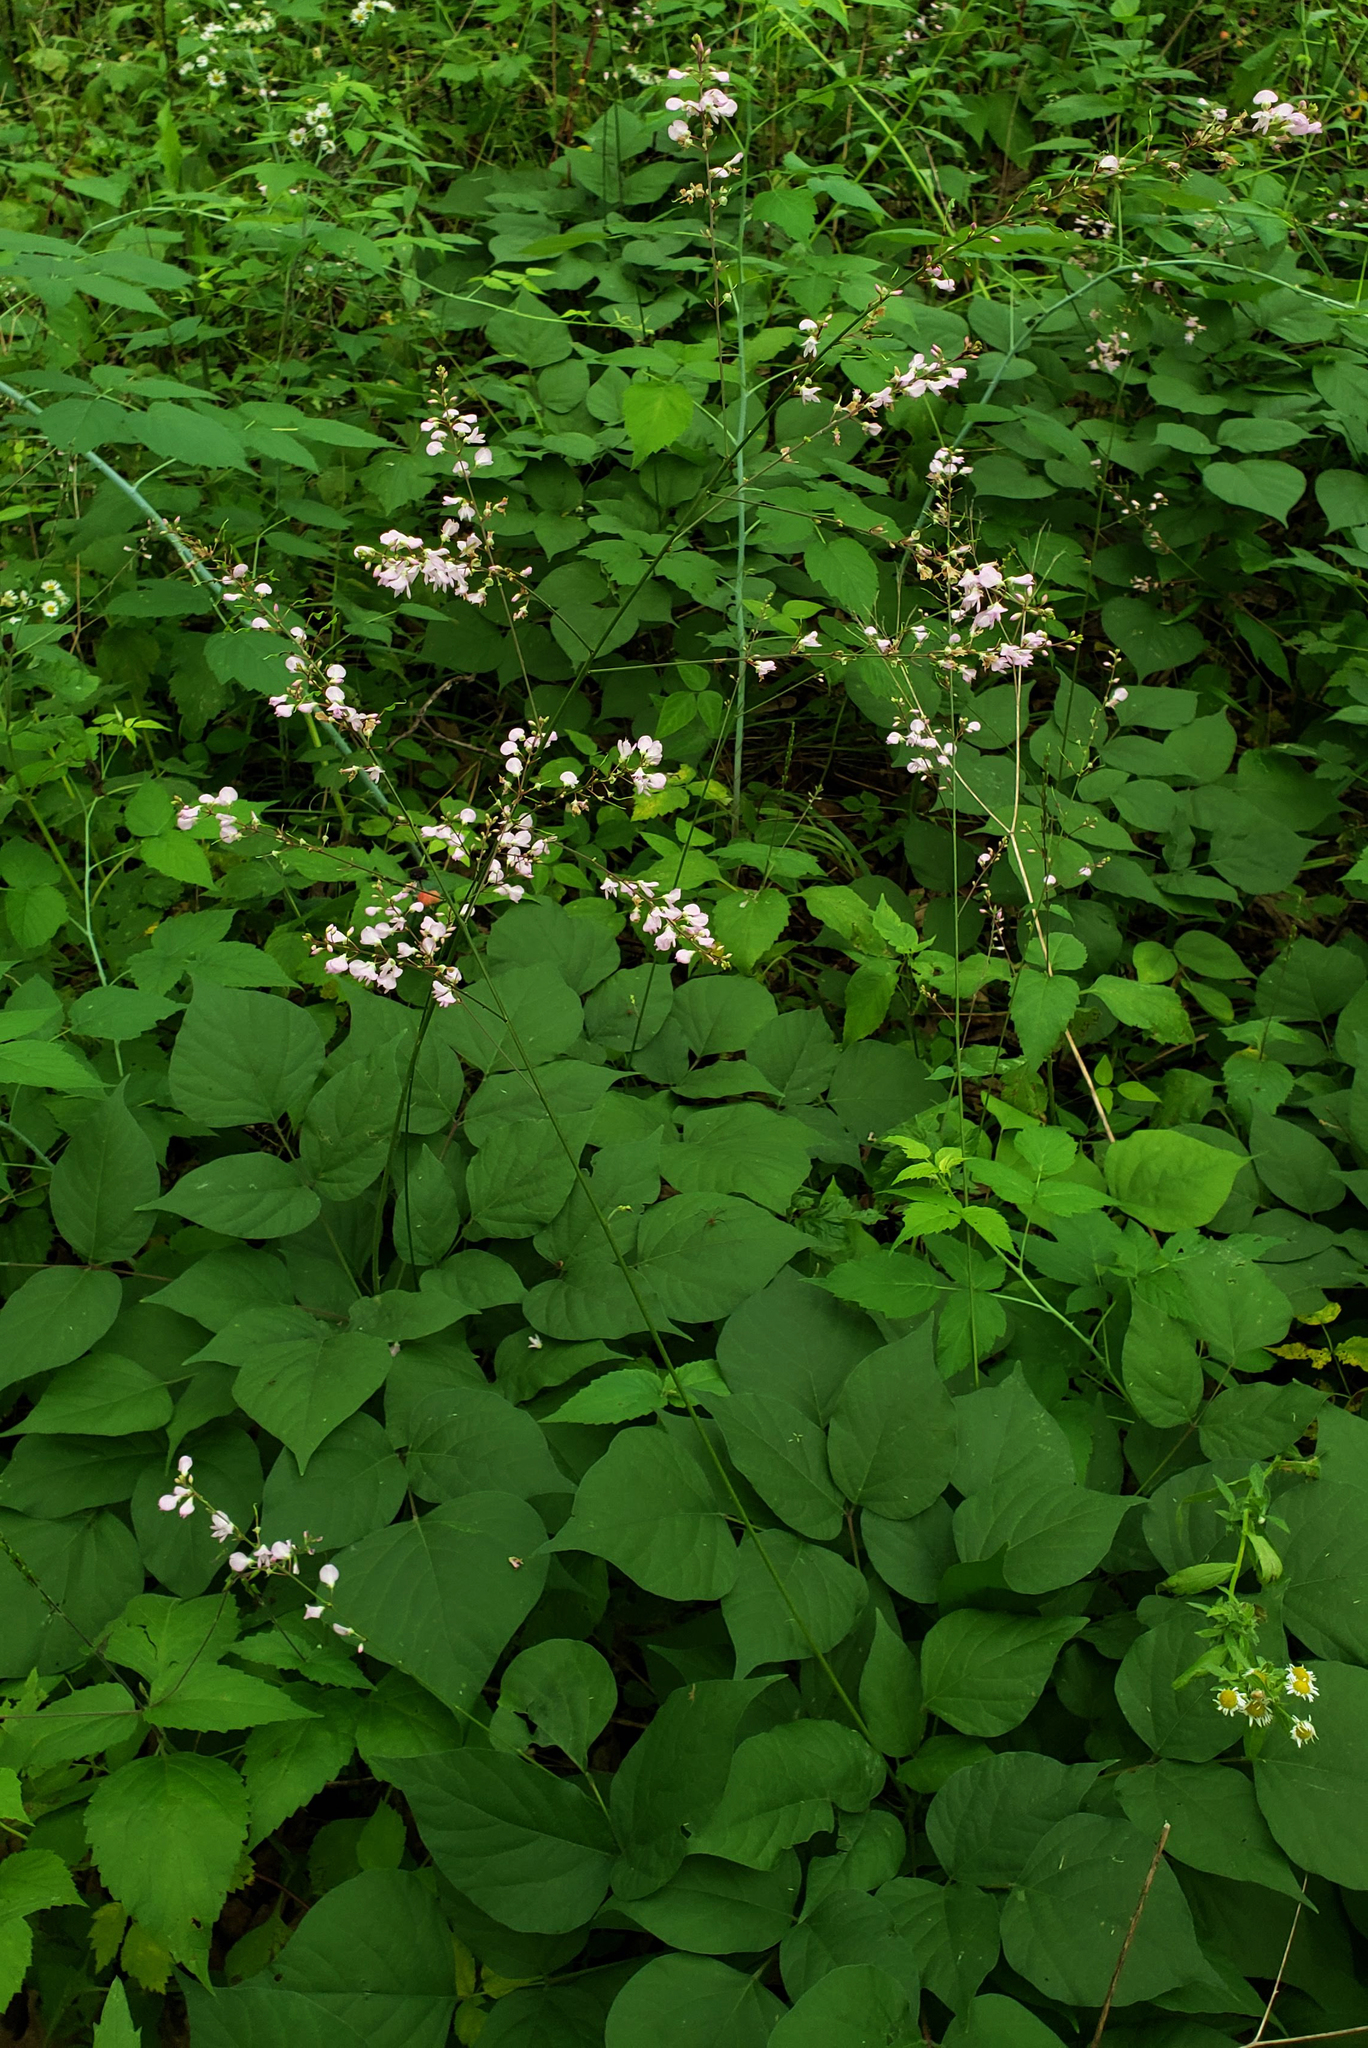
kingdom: Plantae
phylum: Tracheophyta
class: Magnoliopsida
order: Fabales
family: Fabaceae
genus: Hylodesmum
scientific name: Hylodesmum glutinosum
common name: Clustered-leaved tick-trefoil
